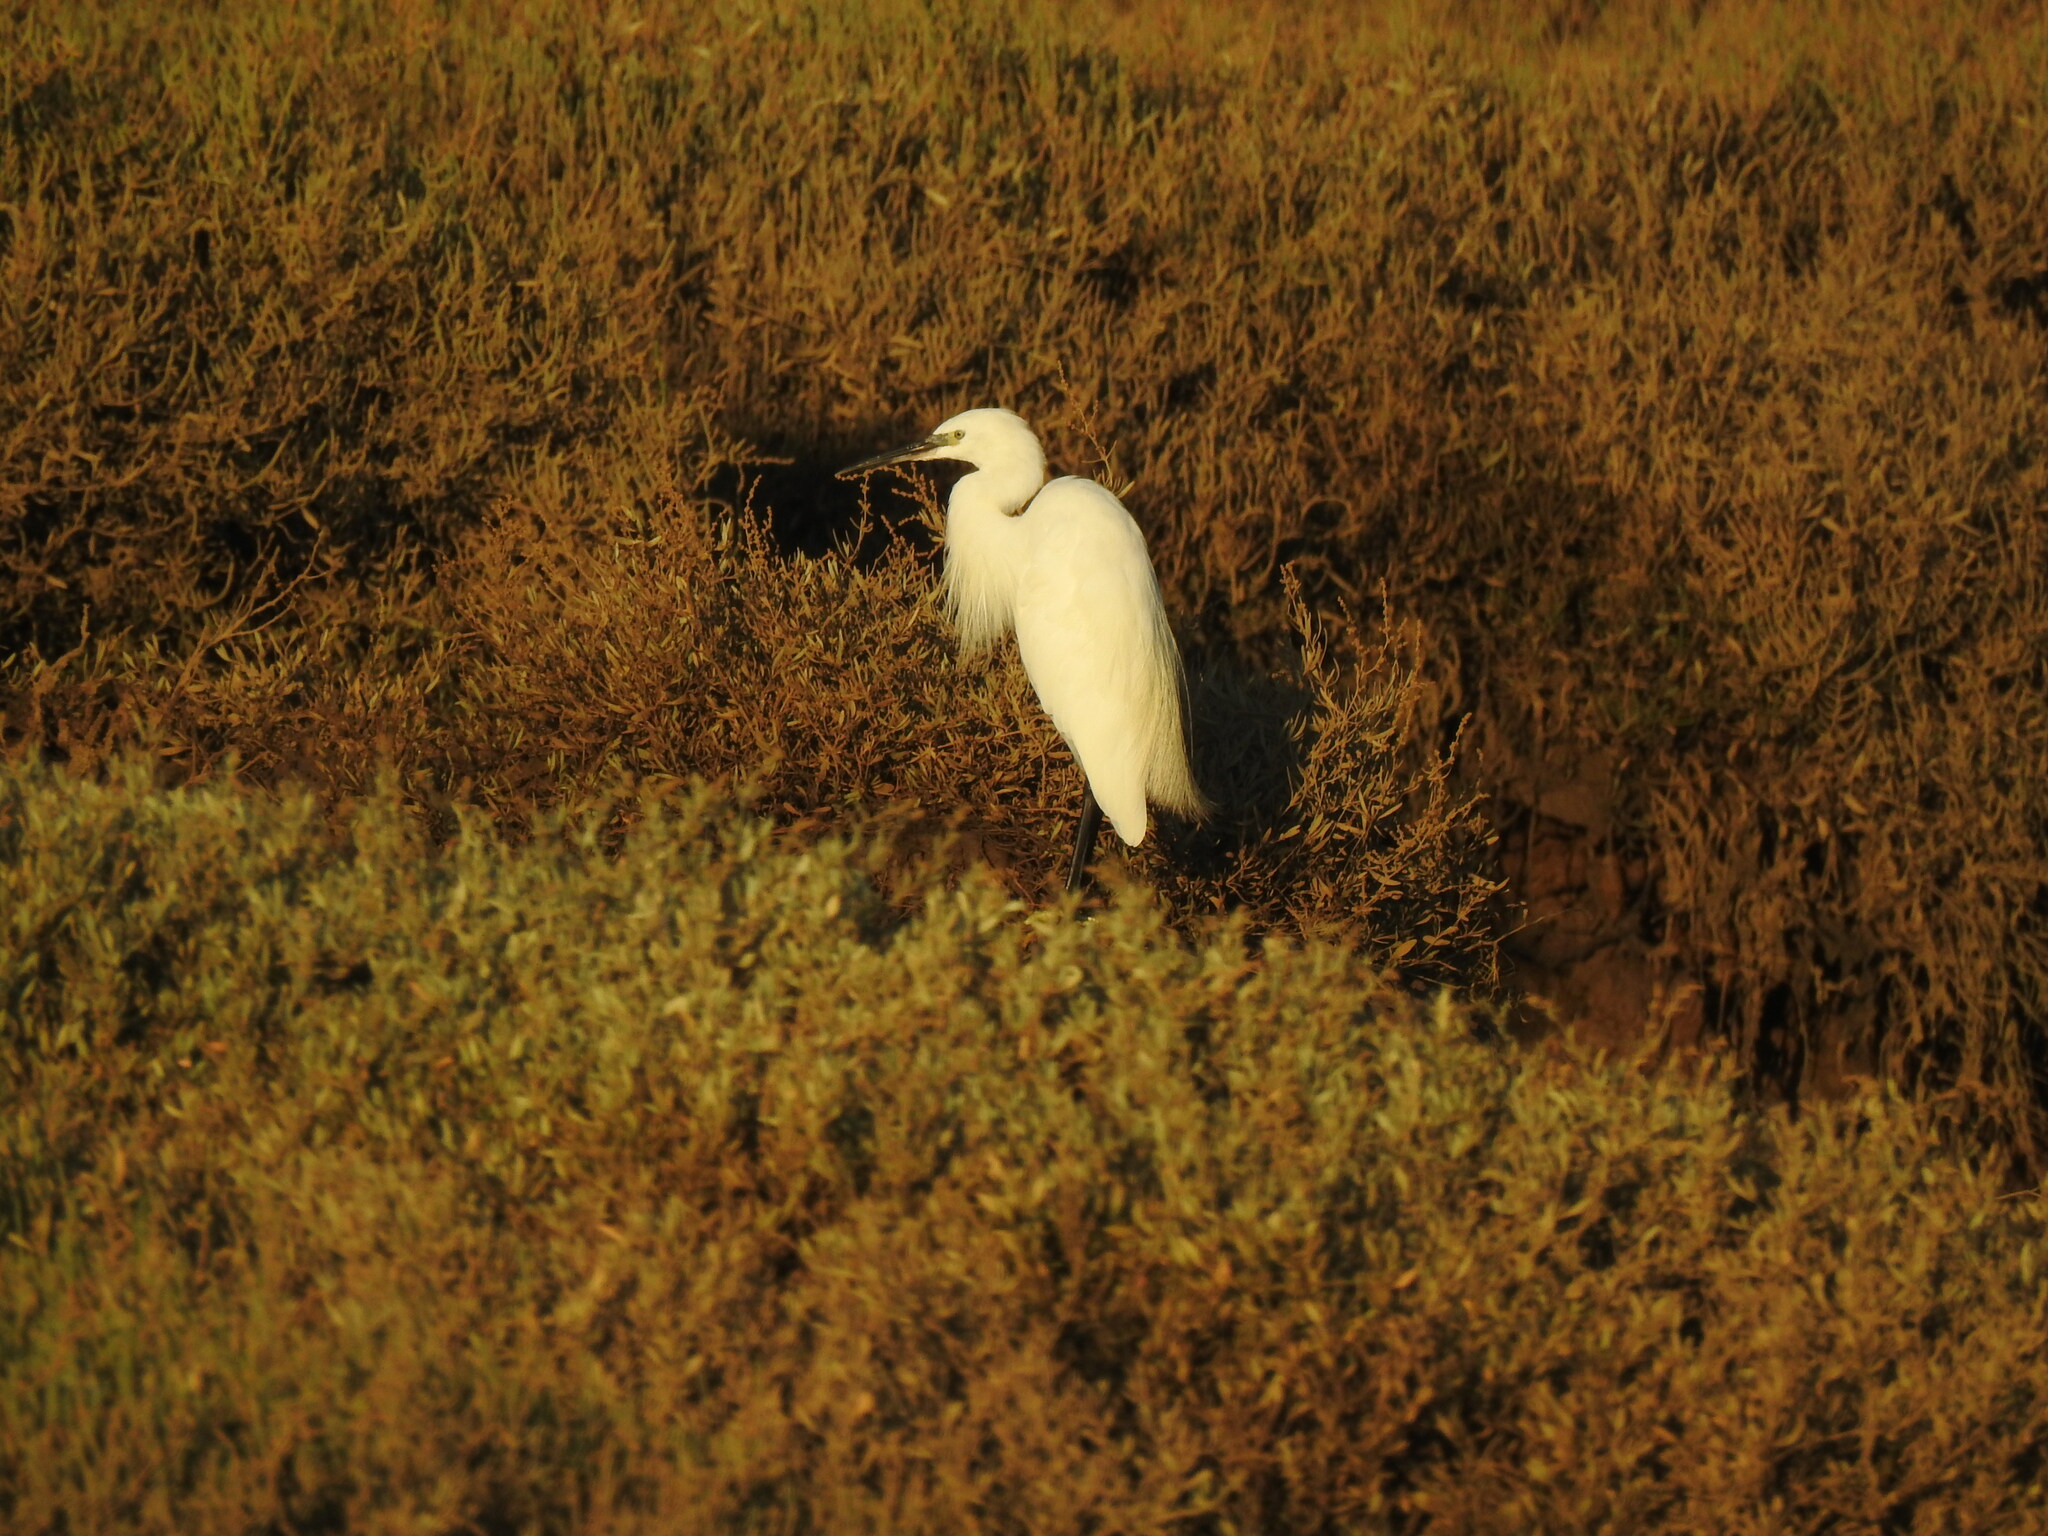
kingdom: Animalia
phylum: Chordata
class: Aves
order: Pelecaniformes
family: Ardeidae
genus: Egretta
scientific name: Egretta garzetta
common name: Little egret
